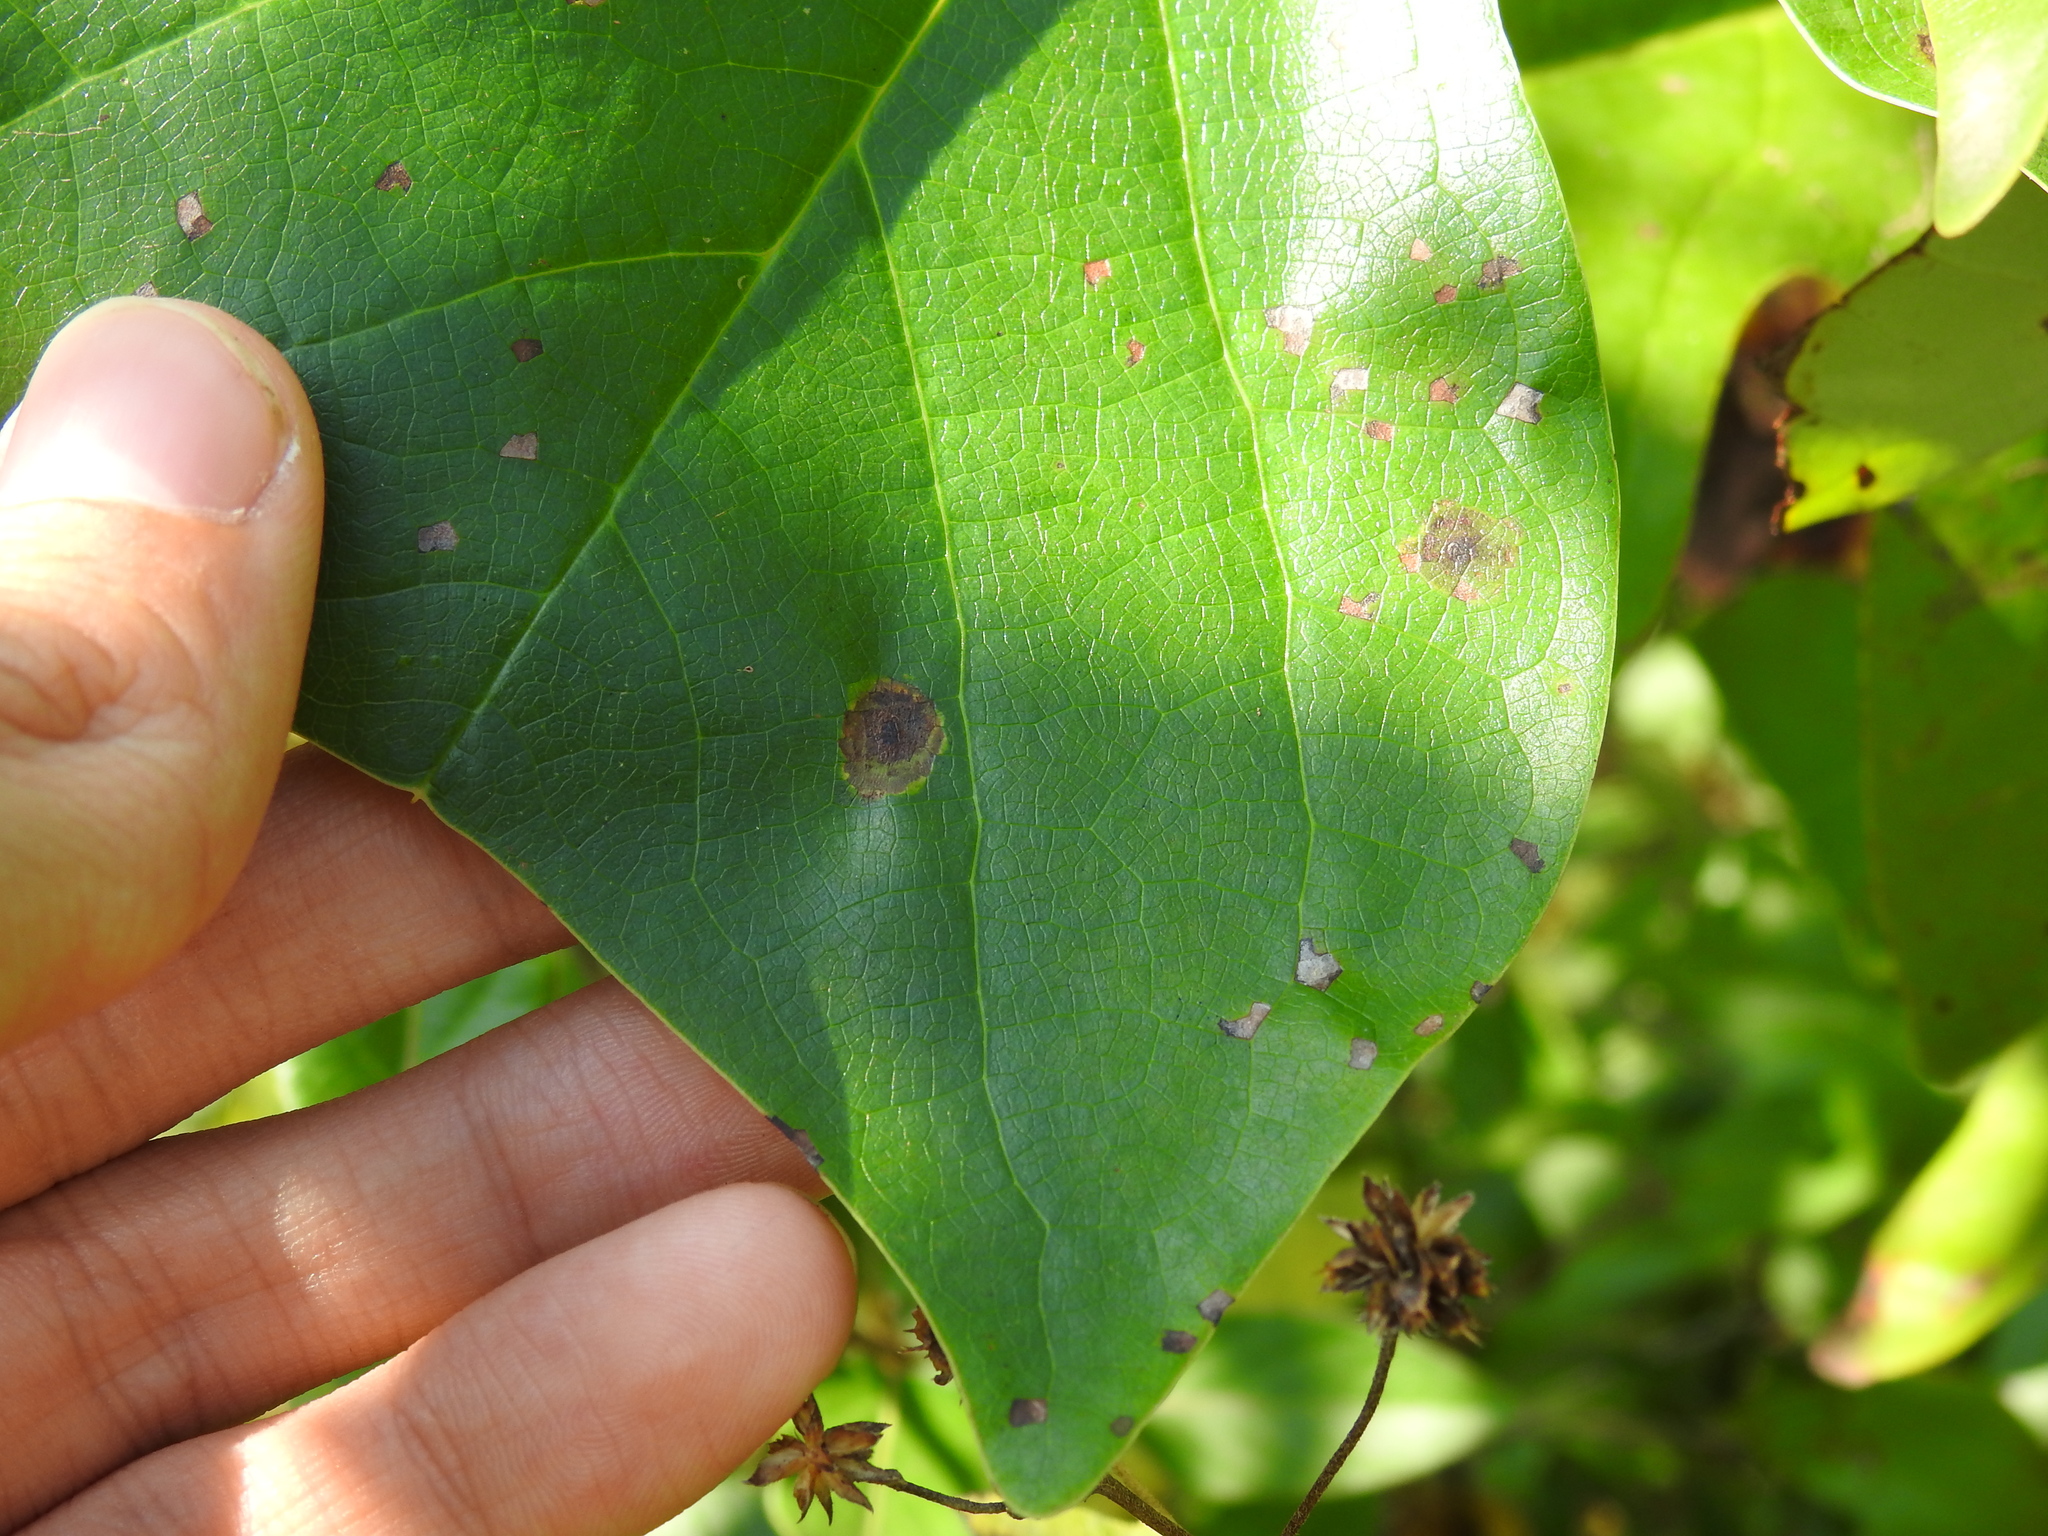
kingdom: Animalia
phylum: Arthropoda
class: Insecta
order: Diptera
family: Cecidomyiidae
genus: Resseliella
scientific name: Resseliella liriodendri
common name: Tulip tree leaf spot gall midge
